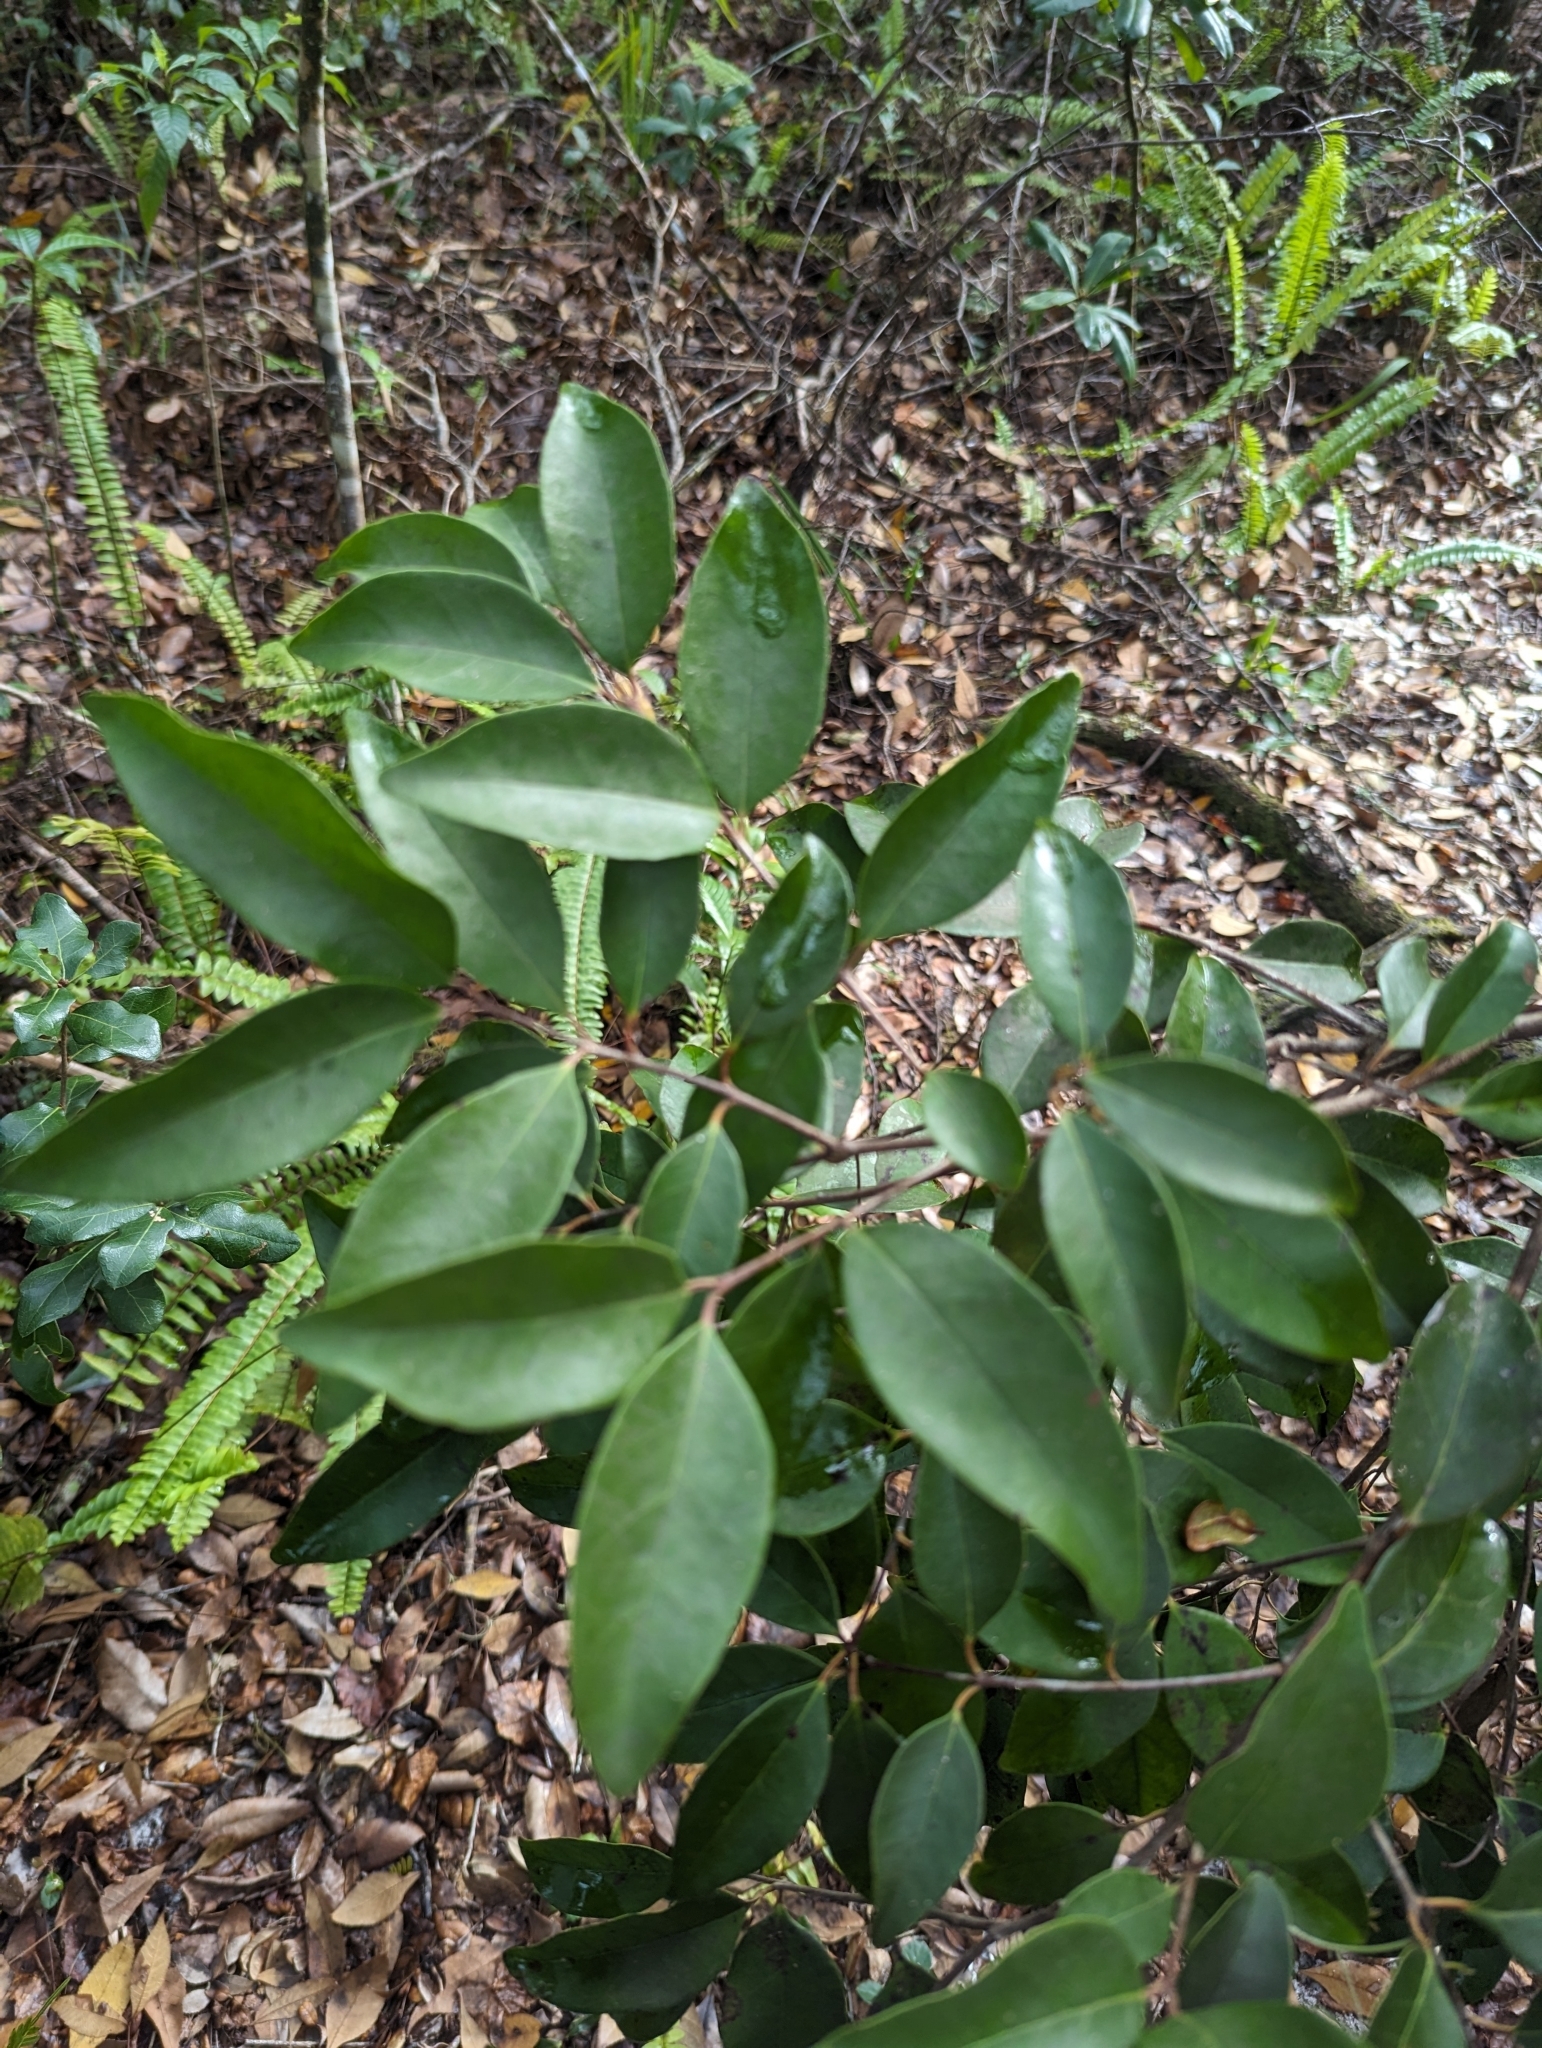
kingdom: Plantae
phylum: Tracheophyta
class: Magnoliopsida
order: Myrtales
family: Myrtaceae
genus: Eugenia
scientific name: Eugenia axillaris
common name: Choaky berry
